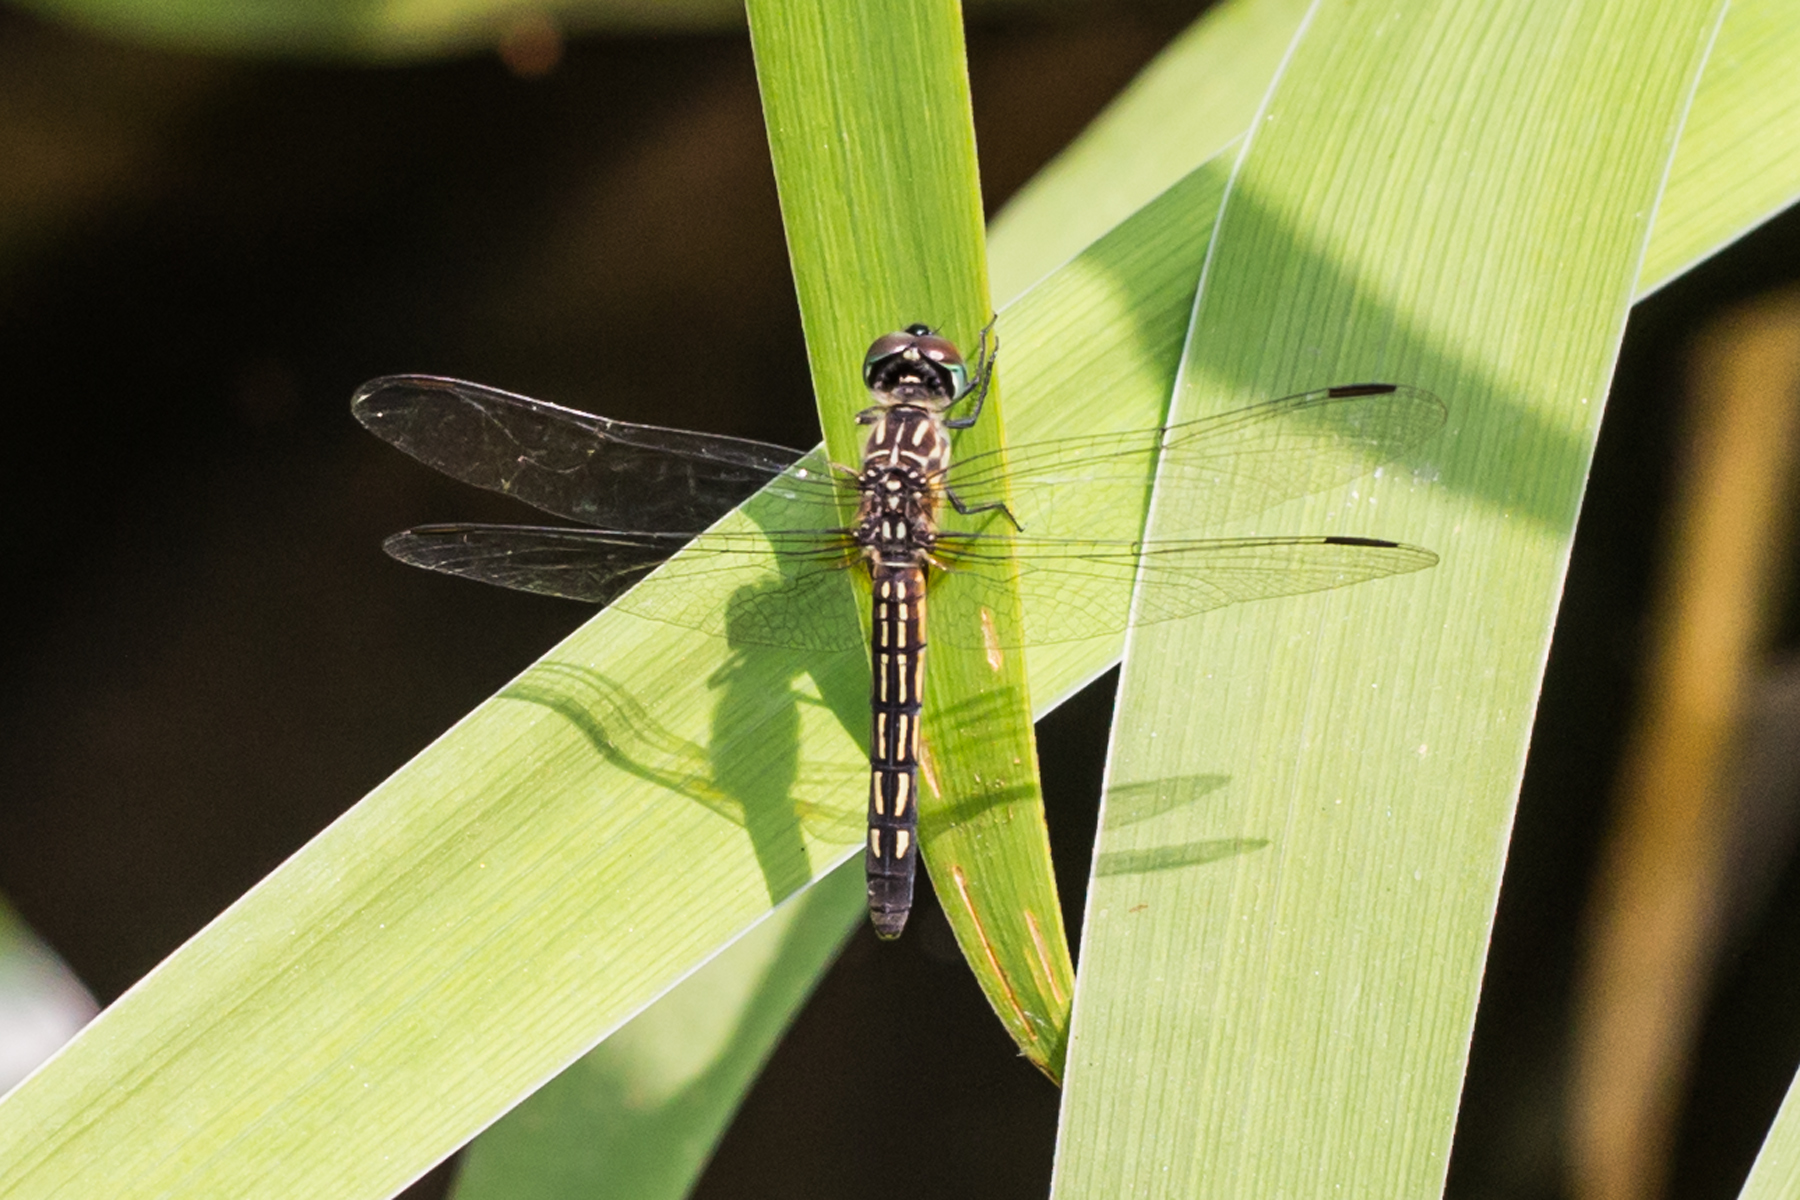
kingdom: Animalia
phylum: Arthropoda
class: Insecta
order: Odonata
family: Libellulidae
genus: Pachydiplax
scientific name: Pachydiplax longipennis
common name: Blue dasher
